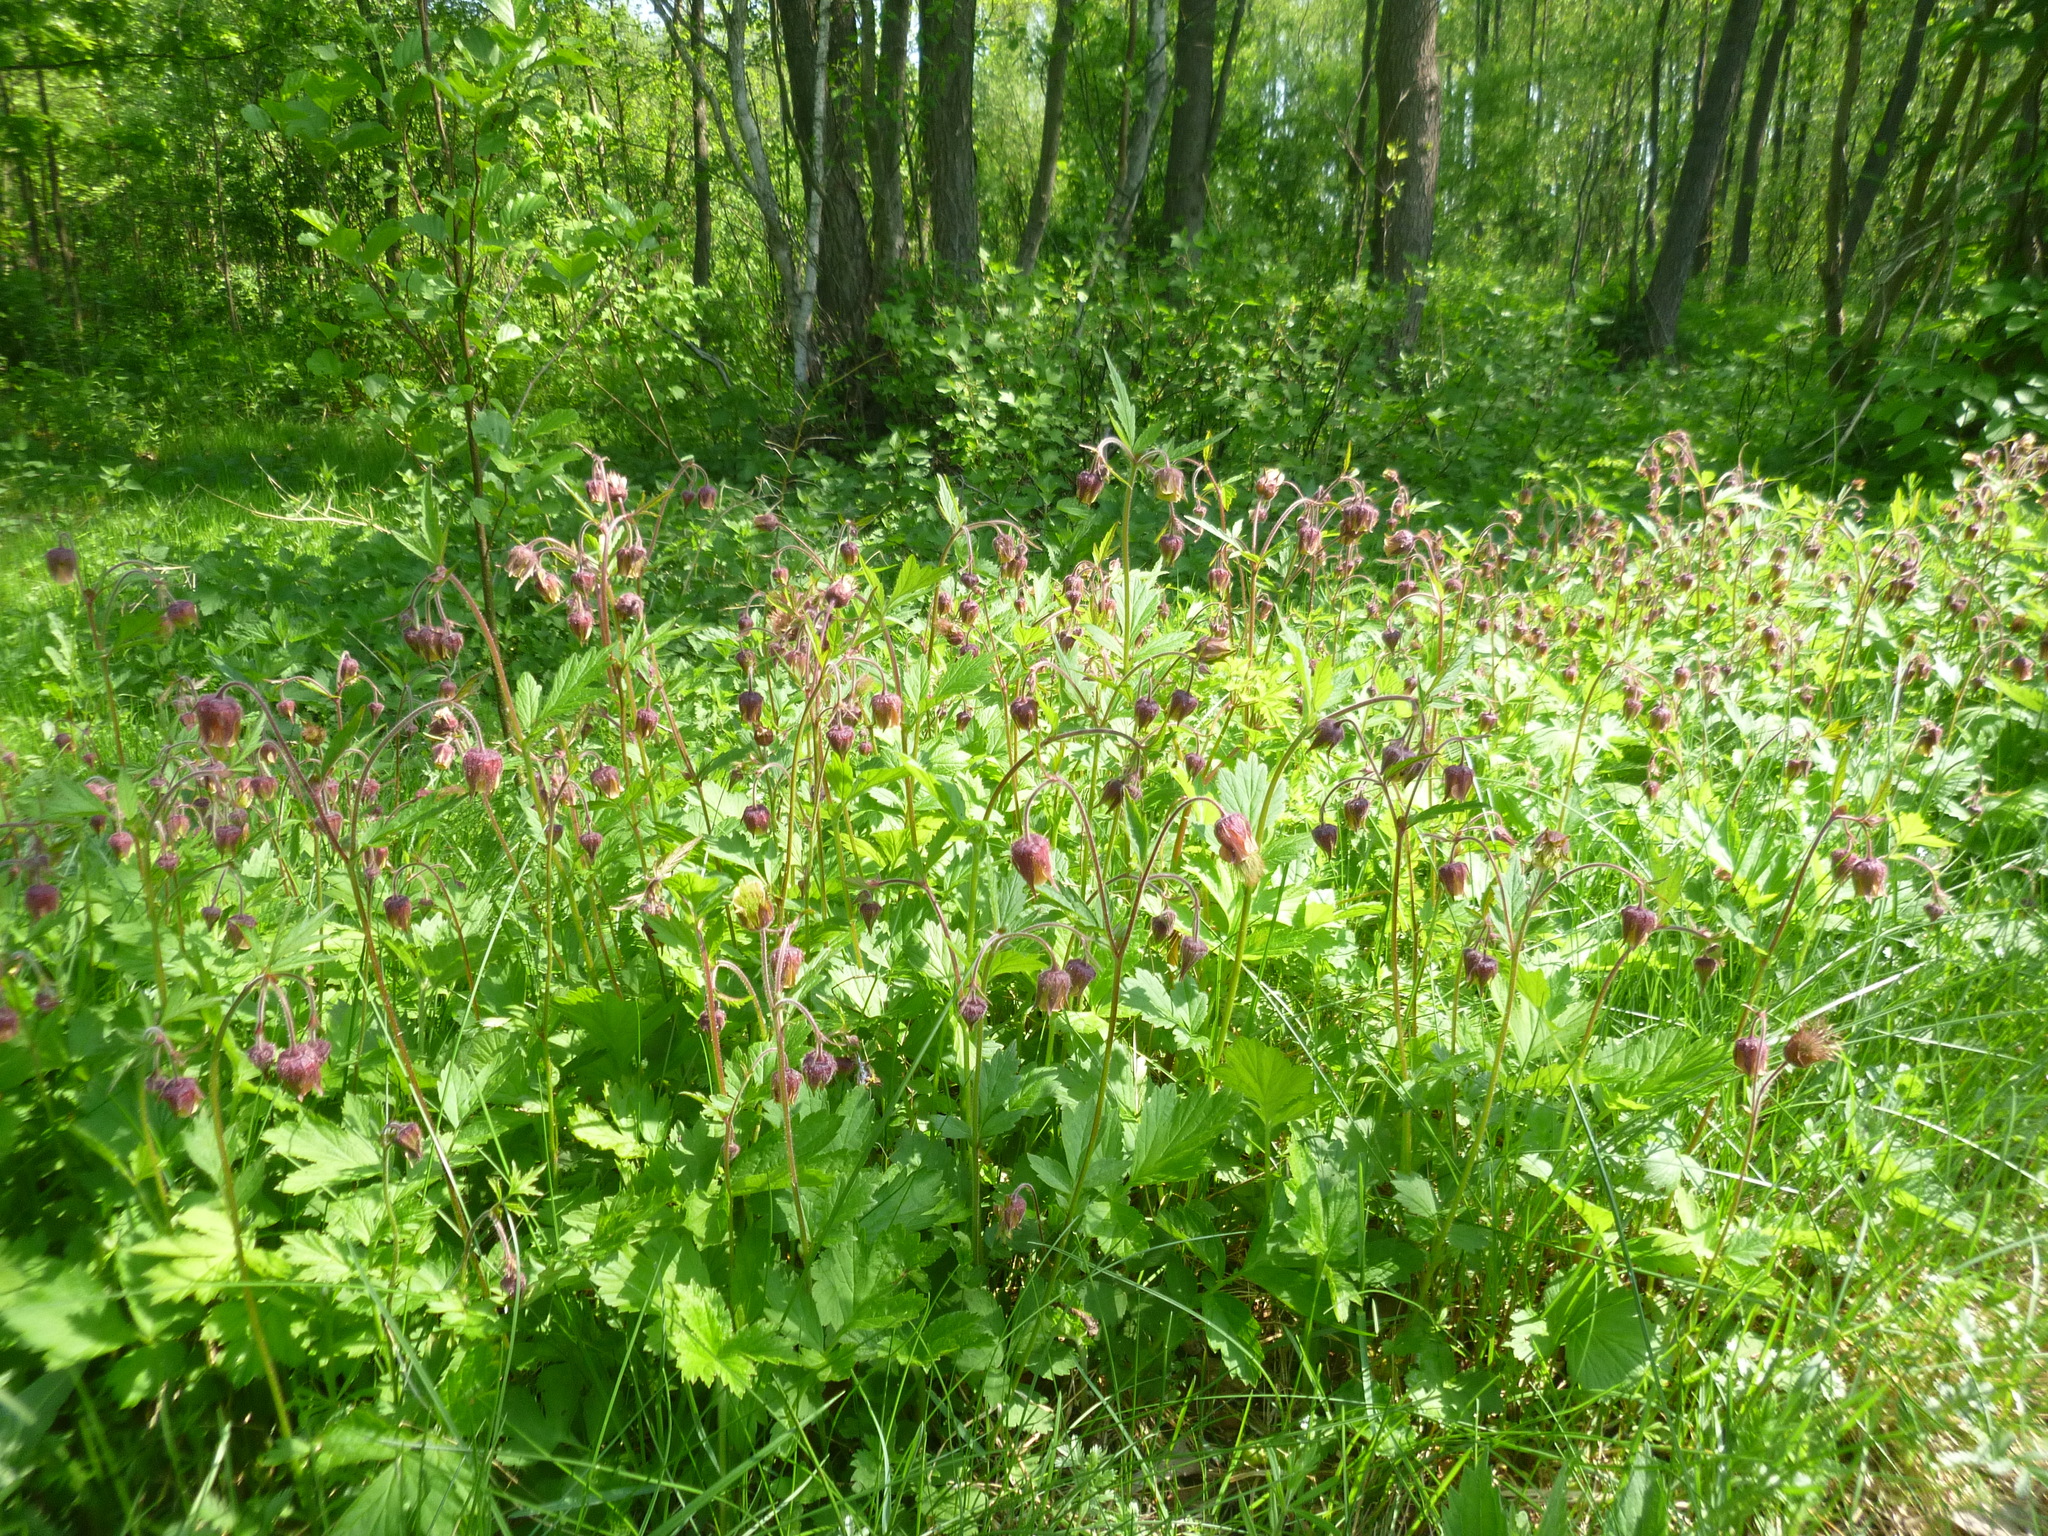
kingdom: Plantae
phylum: Tracheophyta
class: Magnoliopsida
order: Rosales
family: Rosaceae
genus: Geum
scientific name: Geum rivale
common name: Water avens
